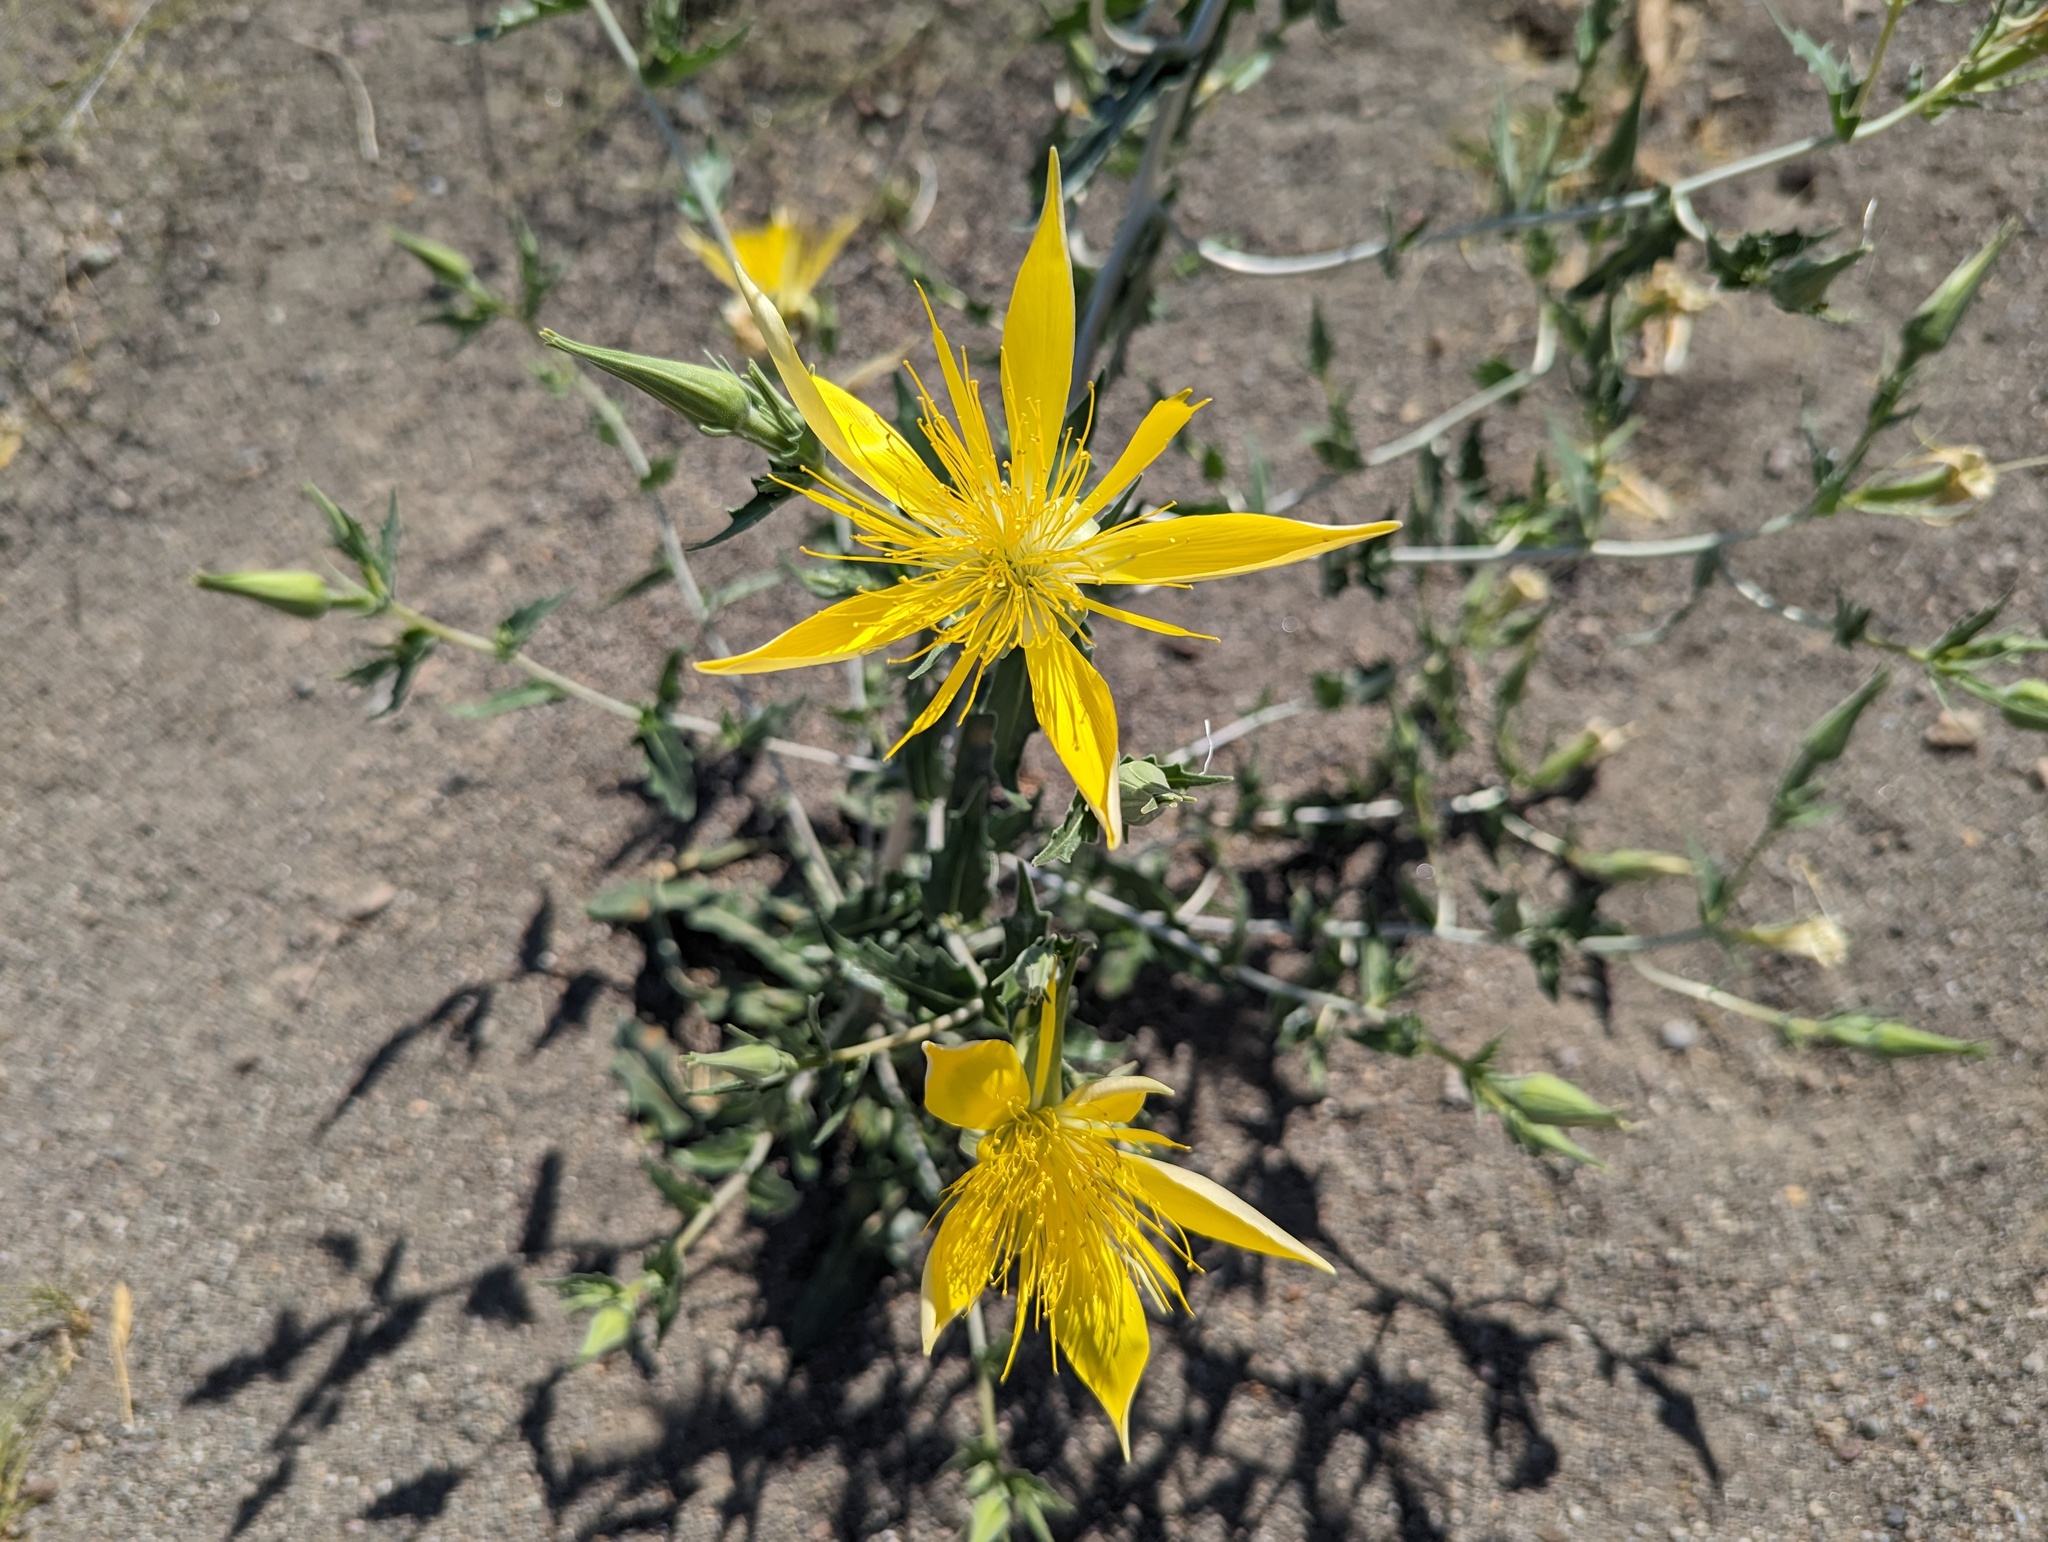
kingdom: Plantae
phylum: Tracheophyta
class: Magnoliopsida
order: Cornales
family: Loasaceae
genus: Mentzelia
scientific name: Mentzelia laevicaulis
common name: Smooth-stem blazingstar
